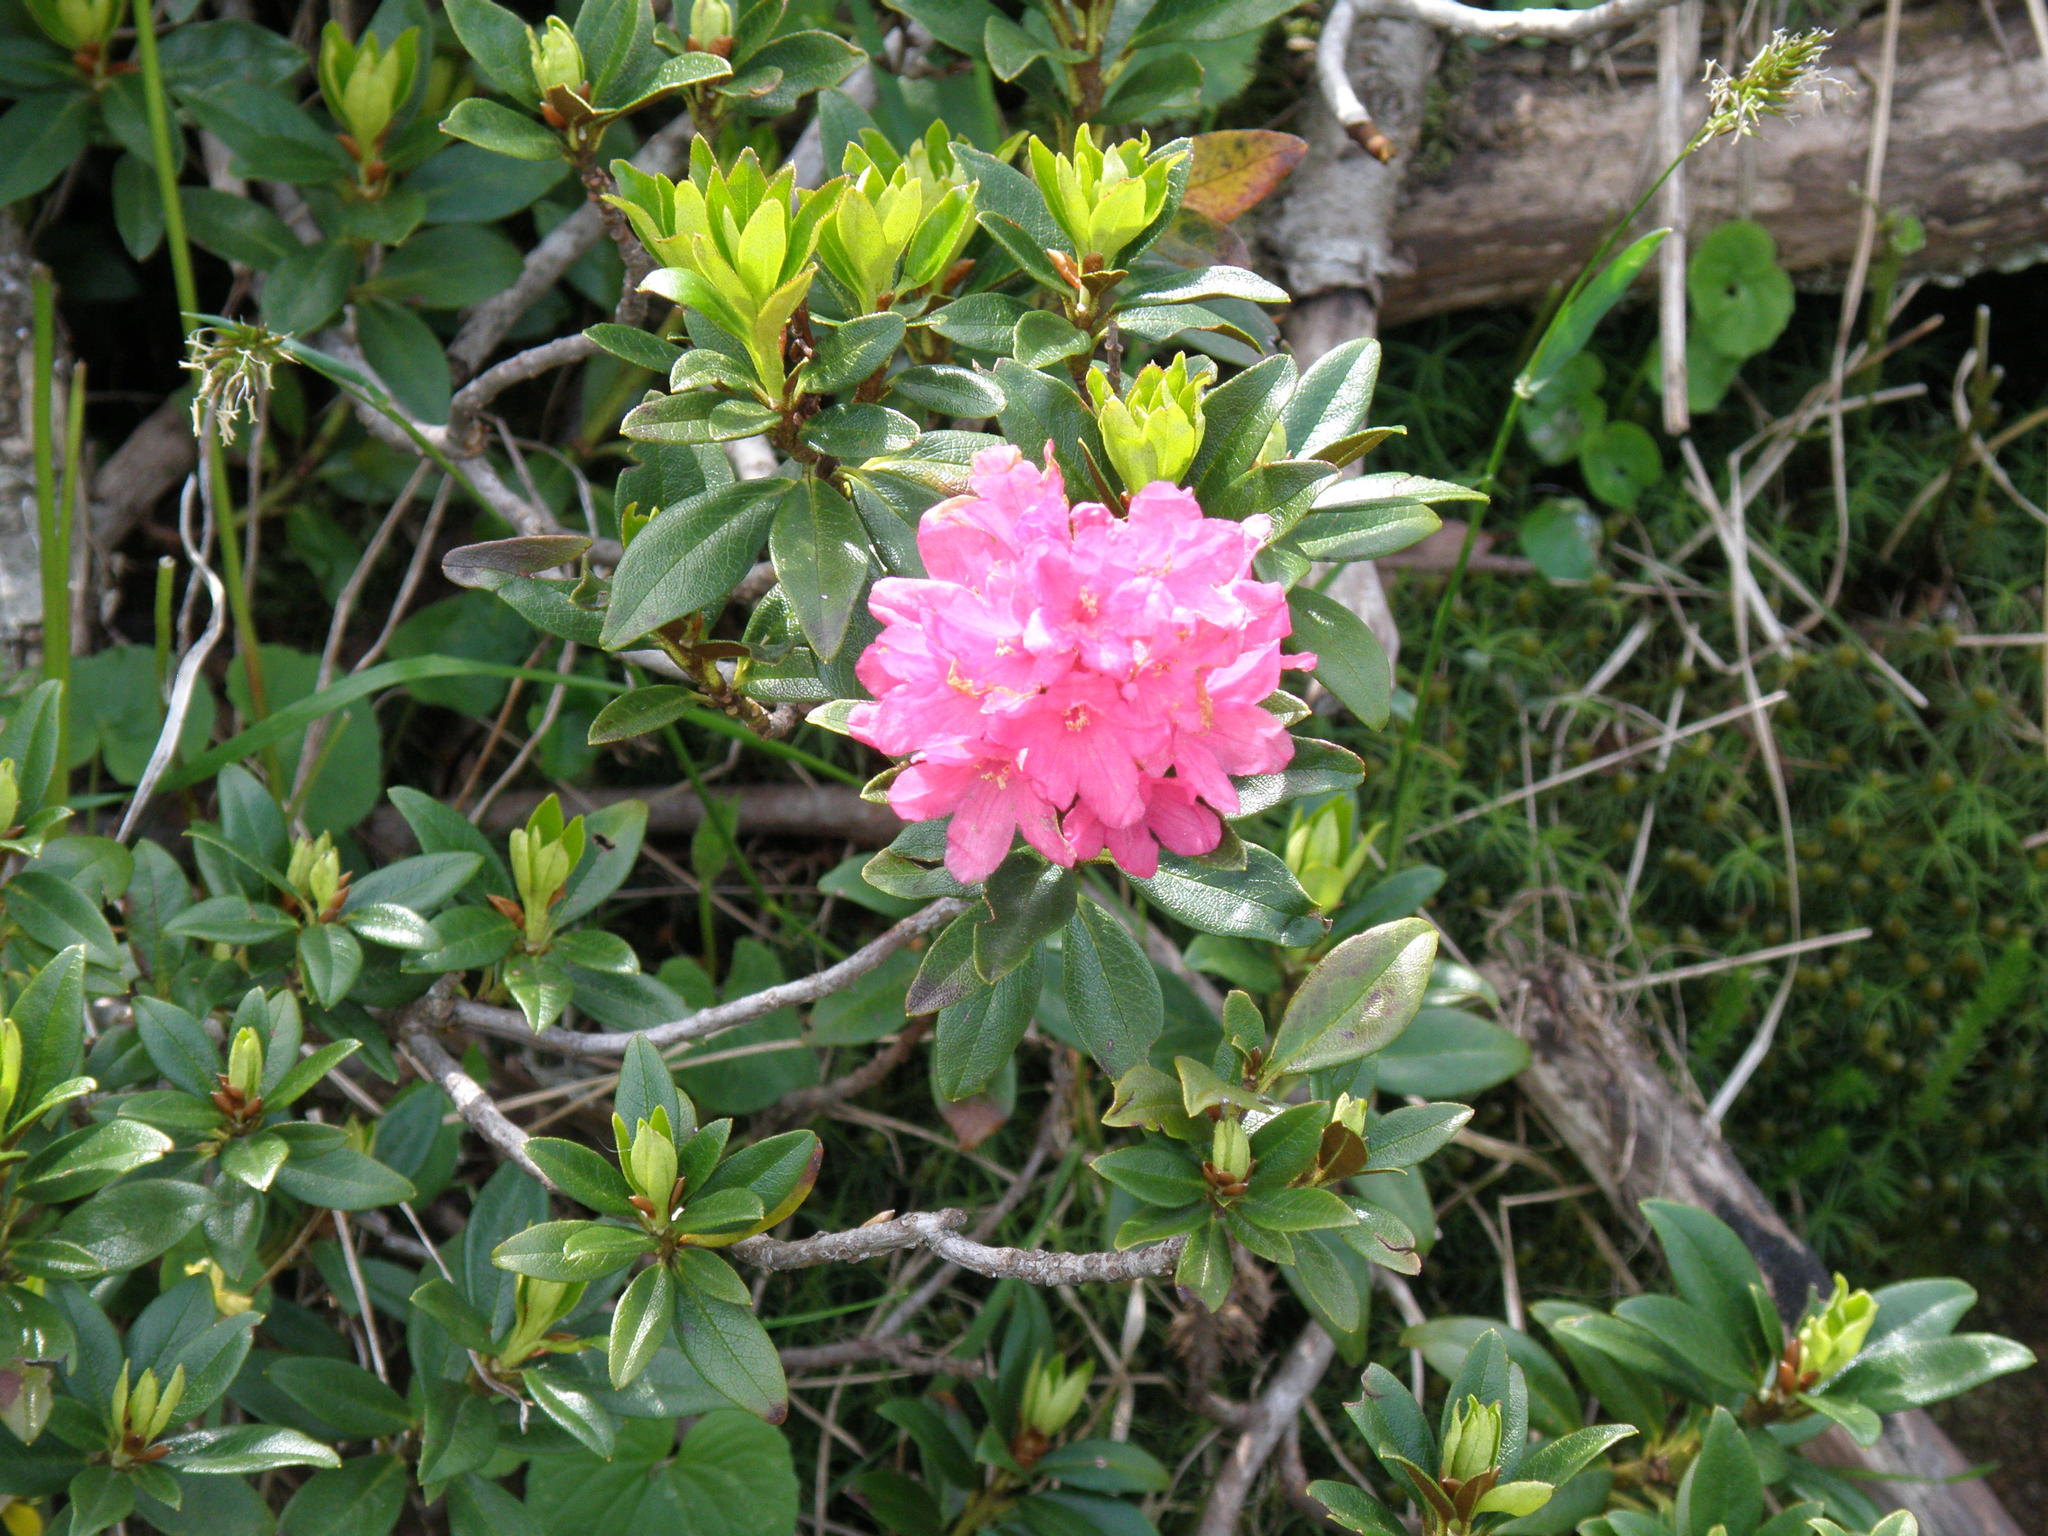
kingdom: Plantae
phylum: Tracheophyta
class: Magnoliopsida
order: Ericales
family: Ericaceae
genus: Rhododendron
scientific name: Rhododendron ferrugineum
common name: Alpenrose
